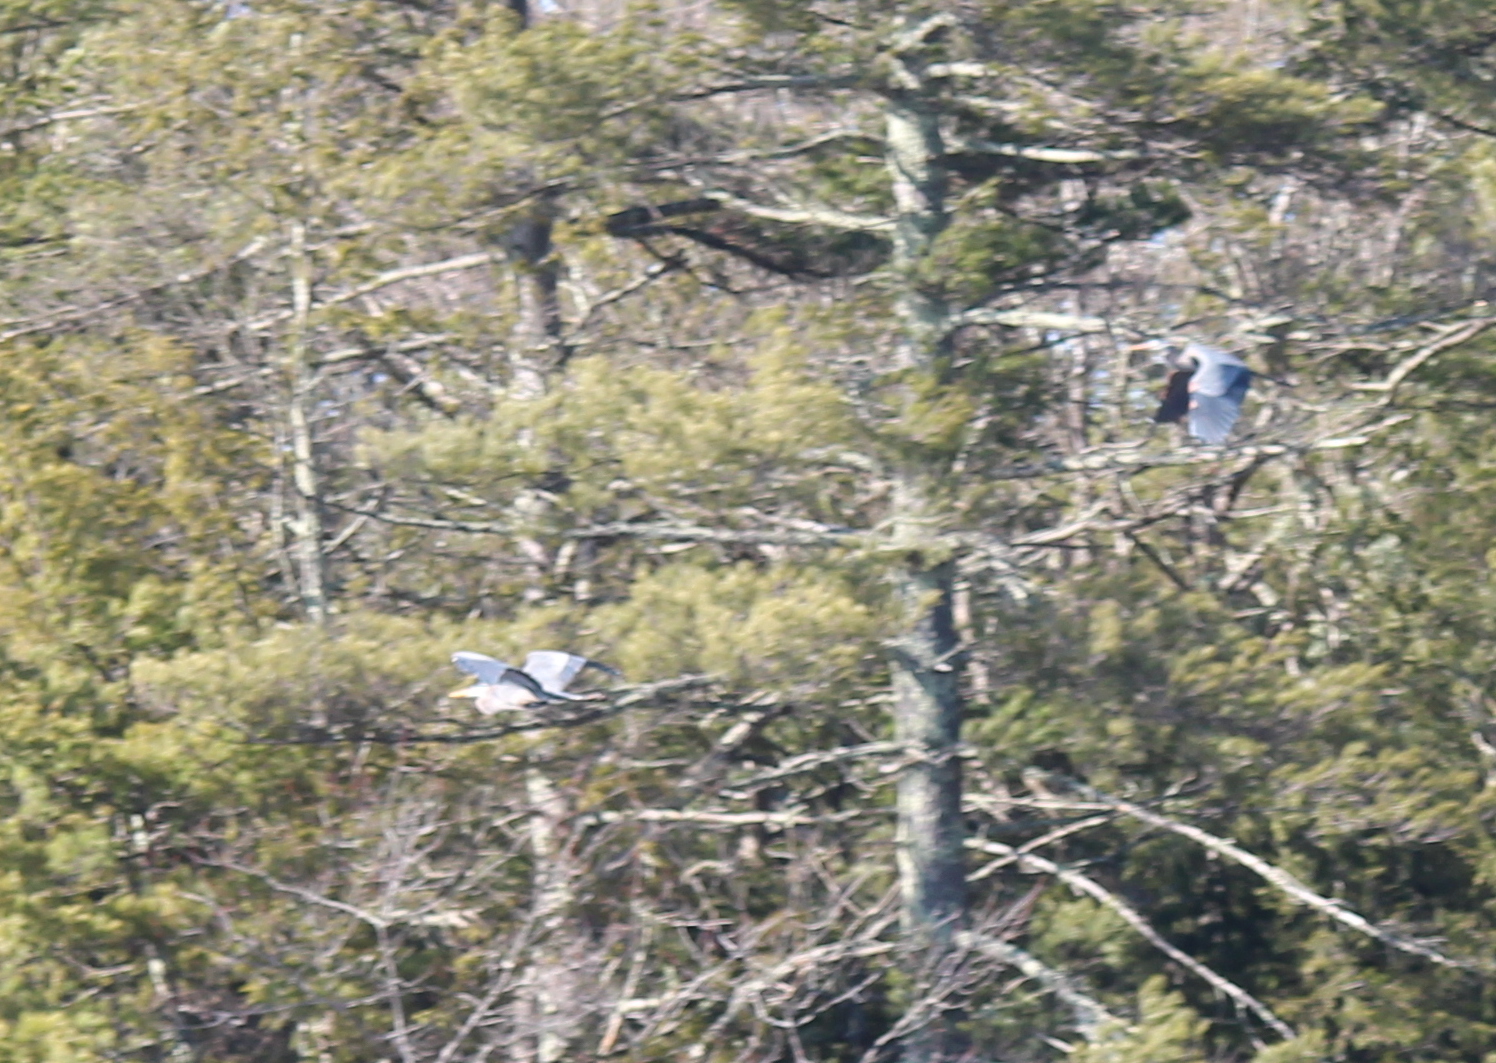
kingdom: Animalia
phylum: Chordata
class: Aves
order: Pelecaniformes
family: Ardeidae
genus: Ardea
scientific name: Ardea herodias
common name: Great blue heron
